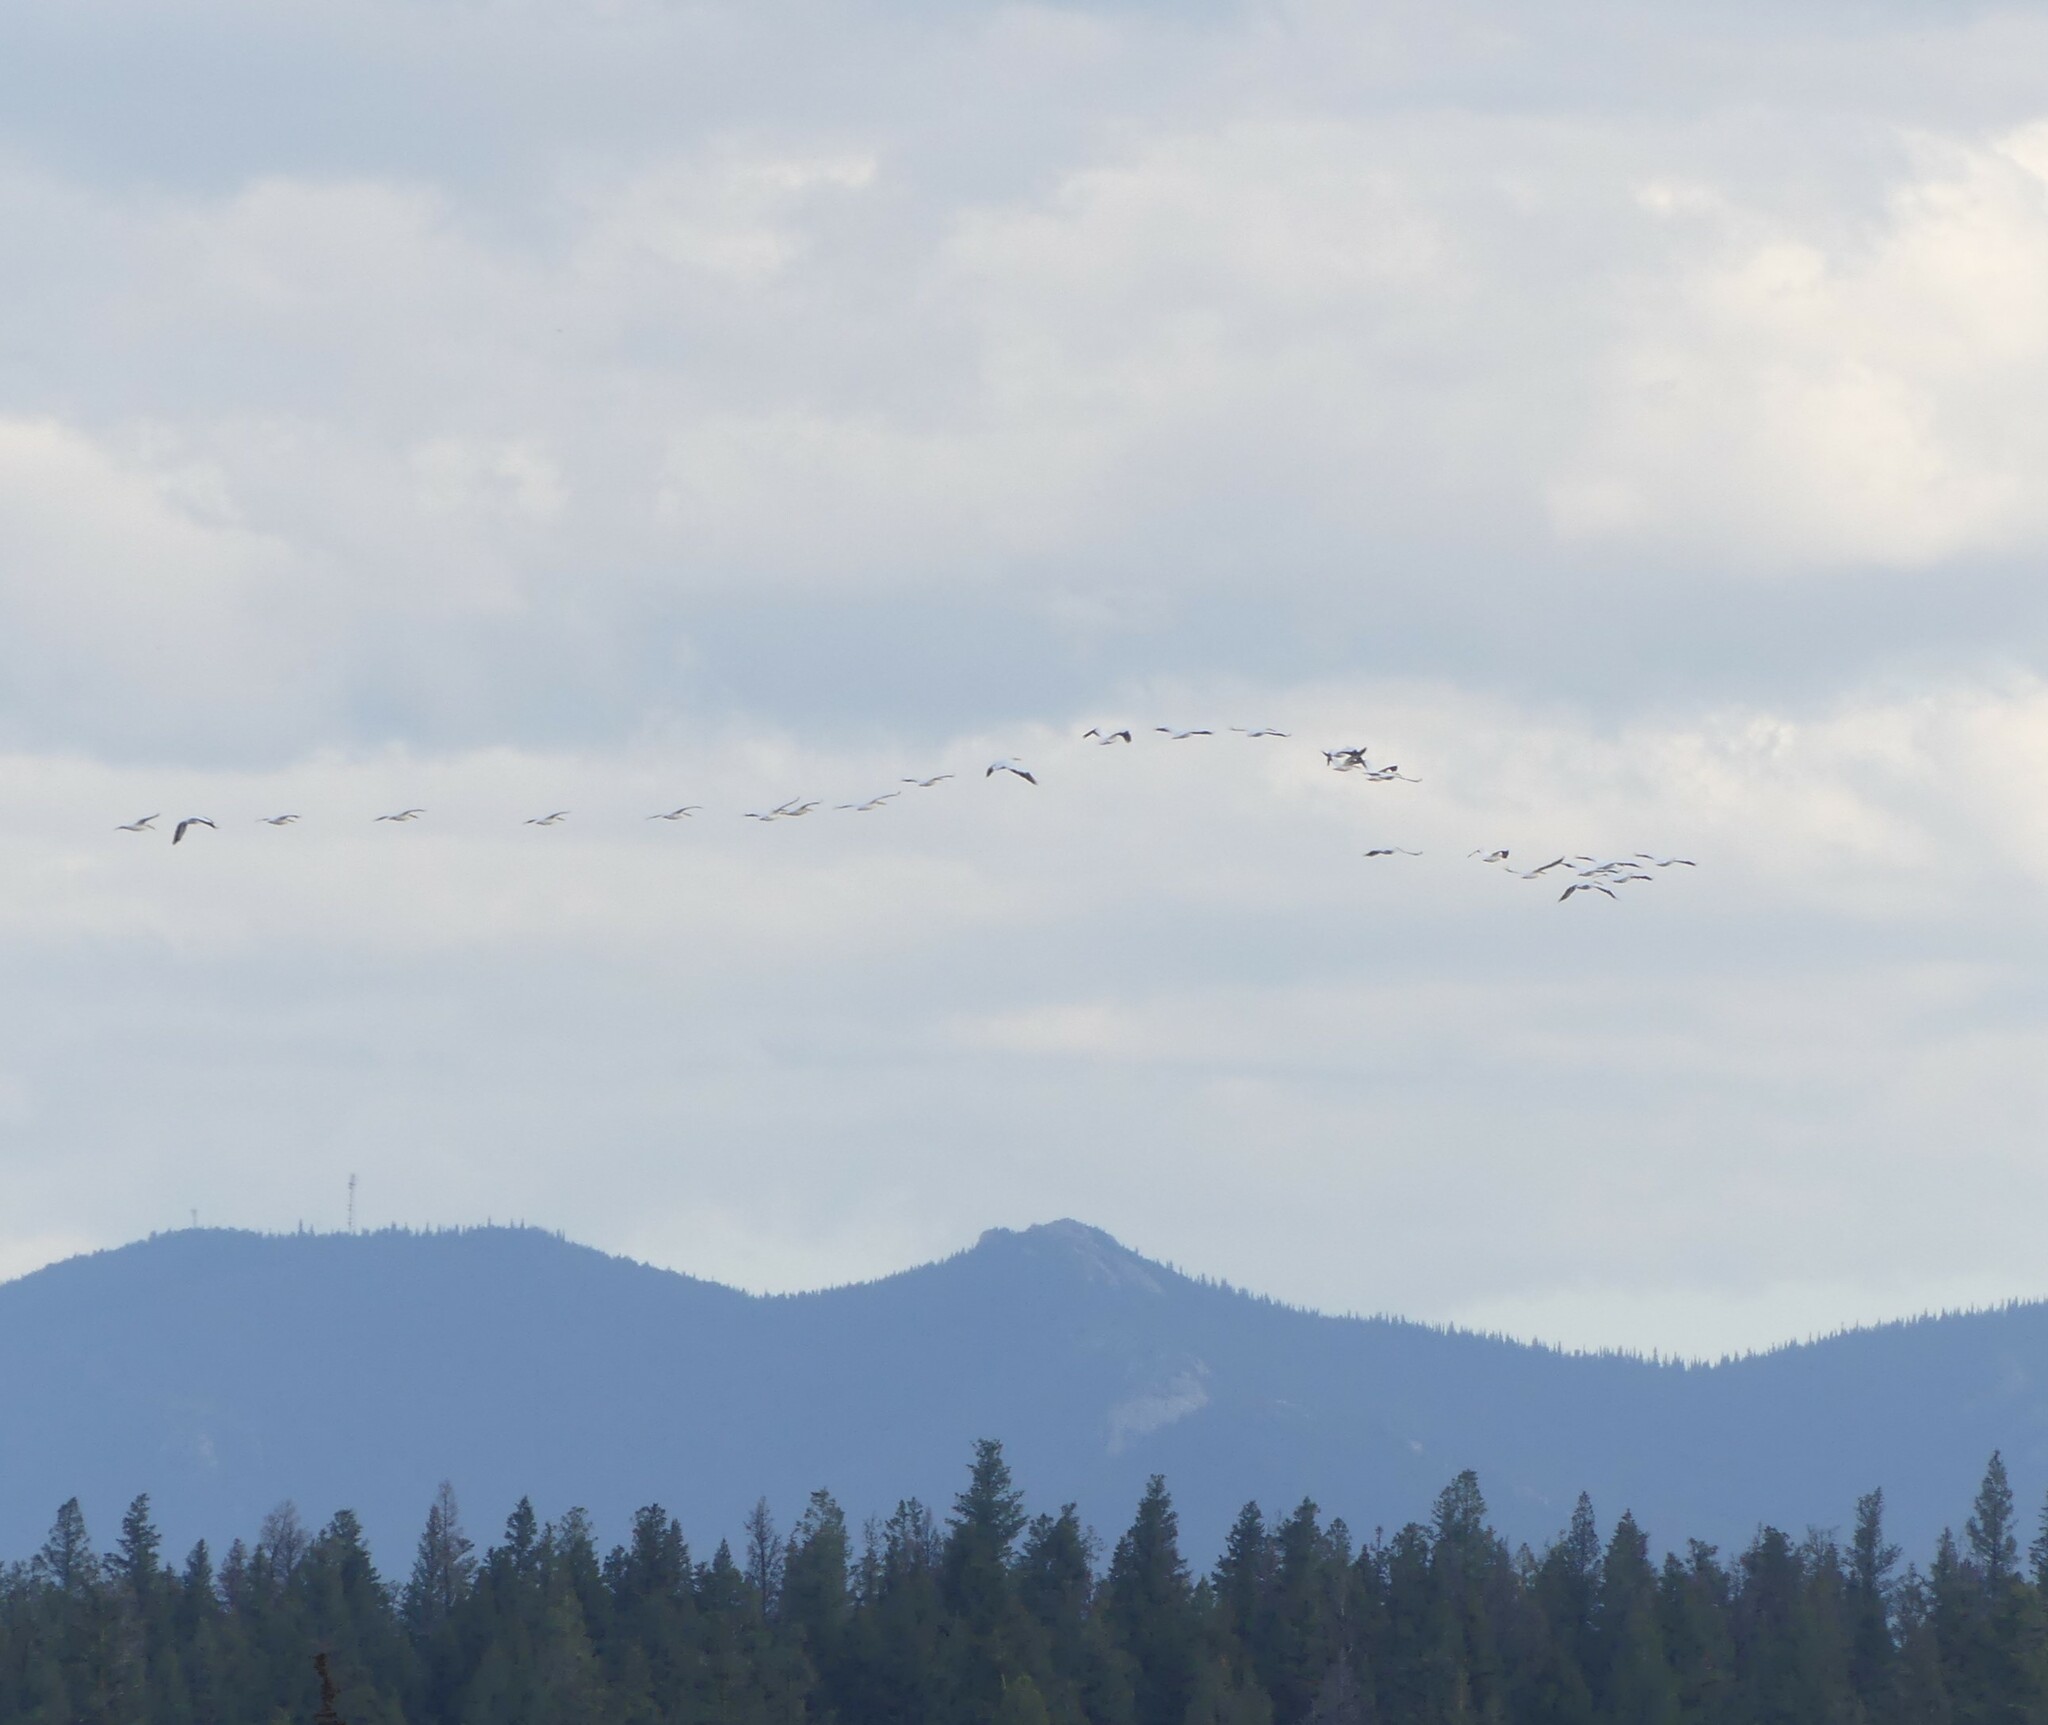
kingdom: Animalia
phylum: Chordata
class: Aves
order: Pelecaniformes
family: Pelecanidae
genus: Pelecanus
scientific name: Pelecanus erythrorhynchos
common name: American white pelican
